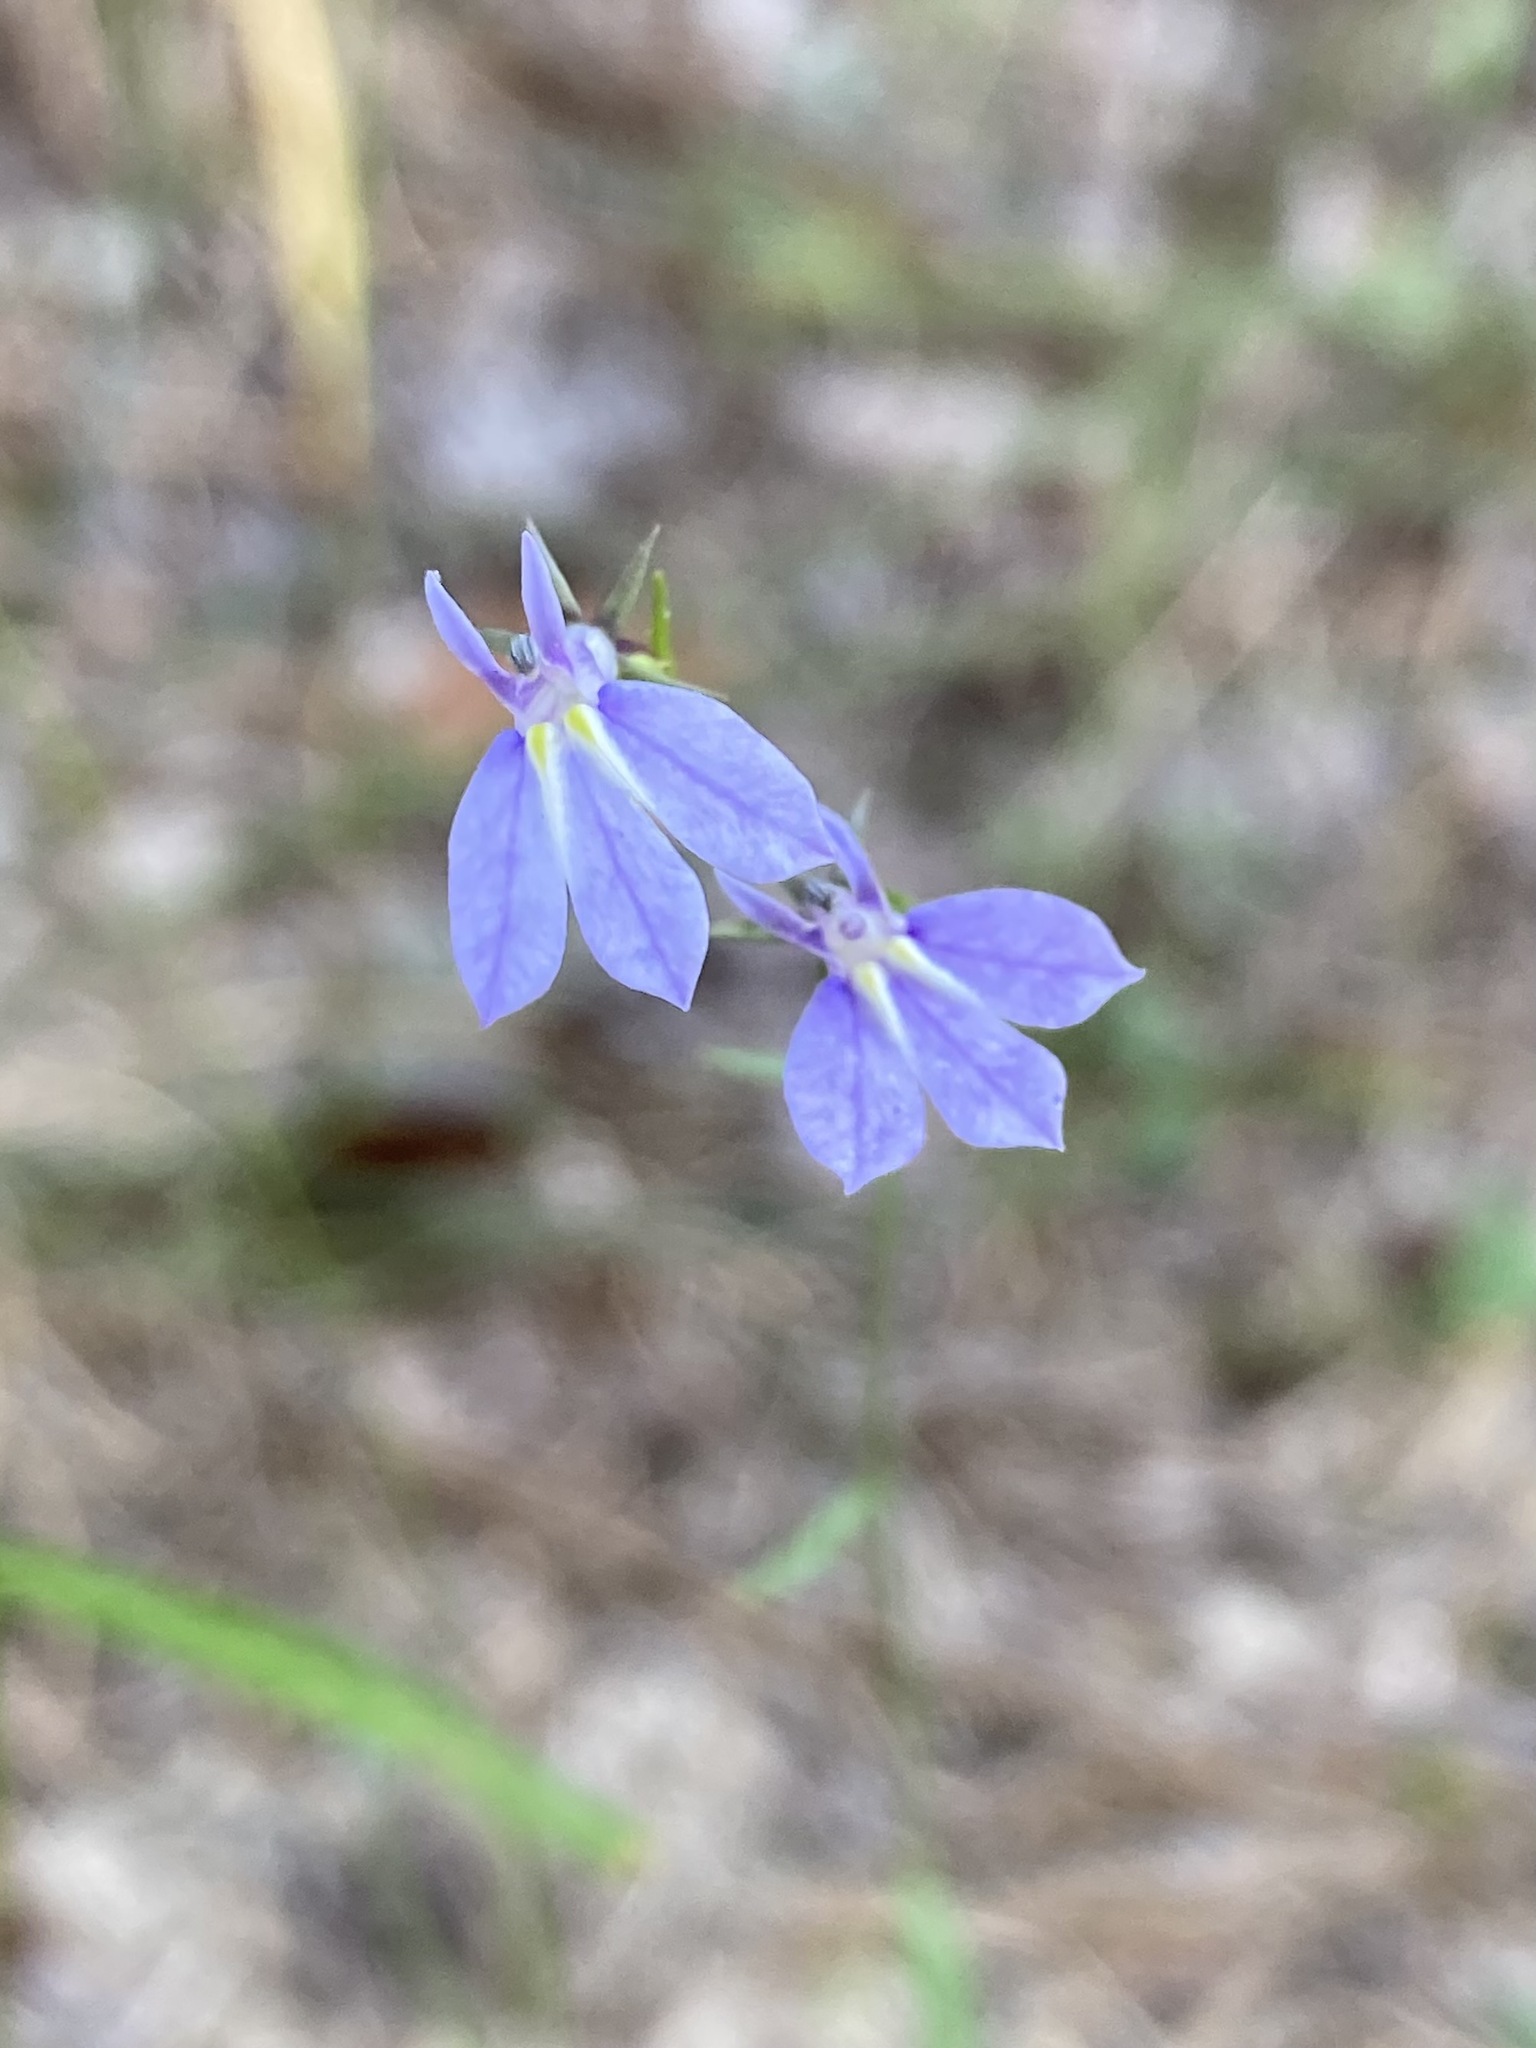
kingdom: Plantae
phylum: Tracheophyta
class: Magnoliopsida
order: Asterales
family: Campanulaceae
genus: Lobelia
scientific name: Lobelia nuttallii
